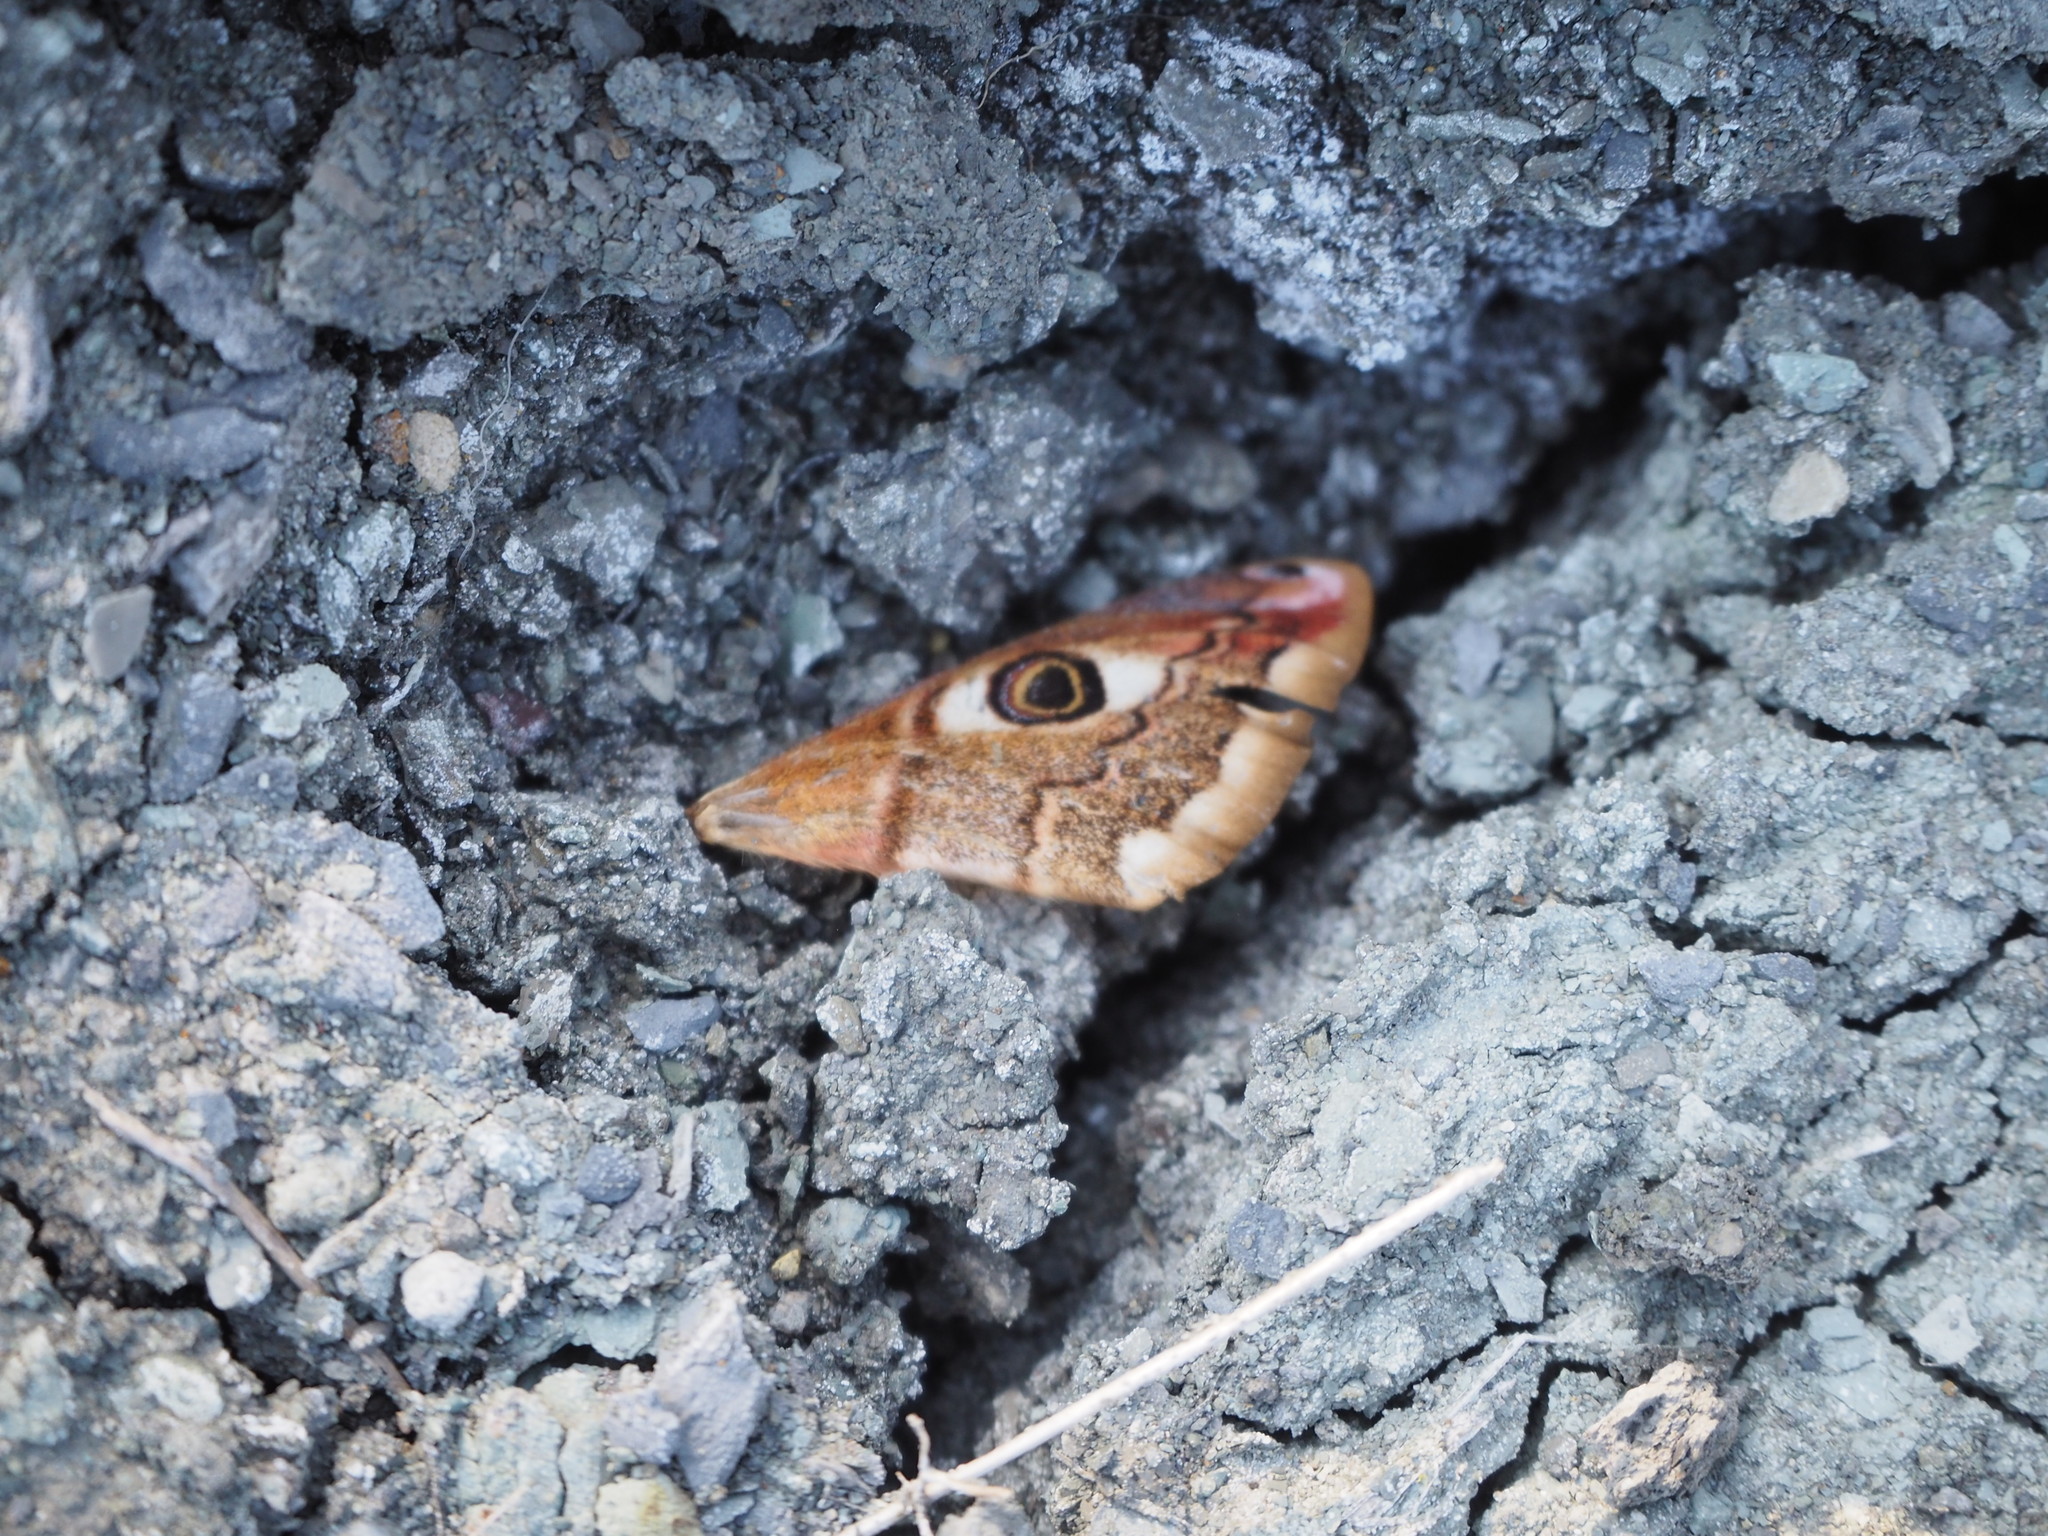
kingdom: Animalia
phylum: Arthropoda
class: Insecta
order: Lepidoptera
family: Saturniidae
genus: Saturnia
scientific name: Saturnia pavoniella
